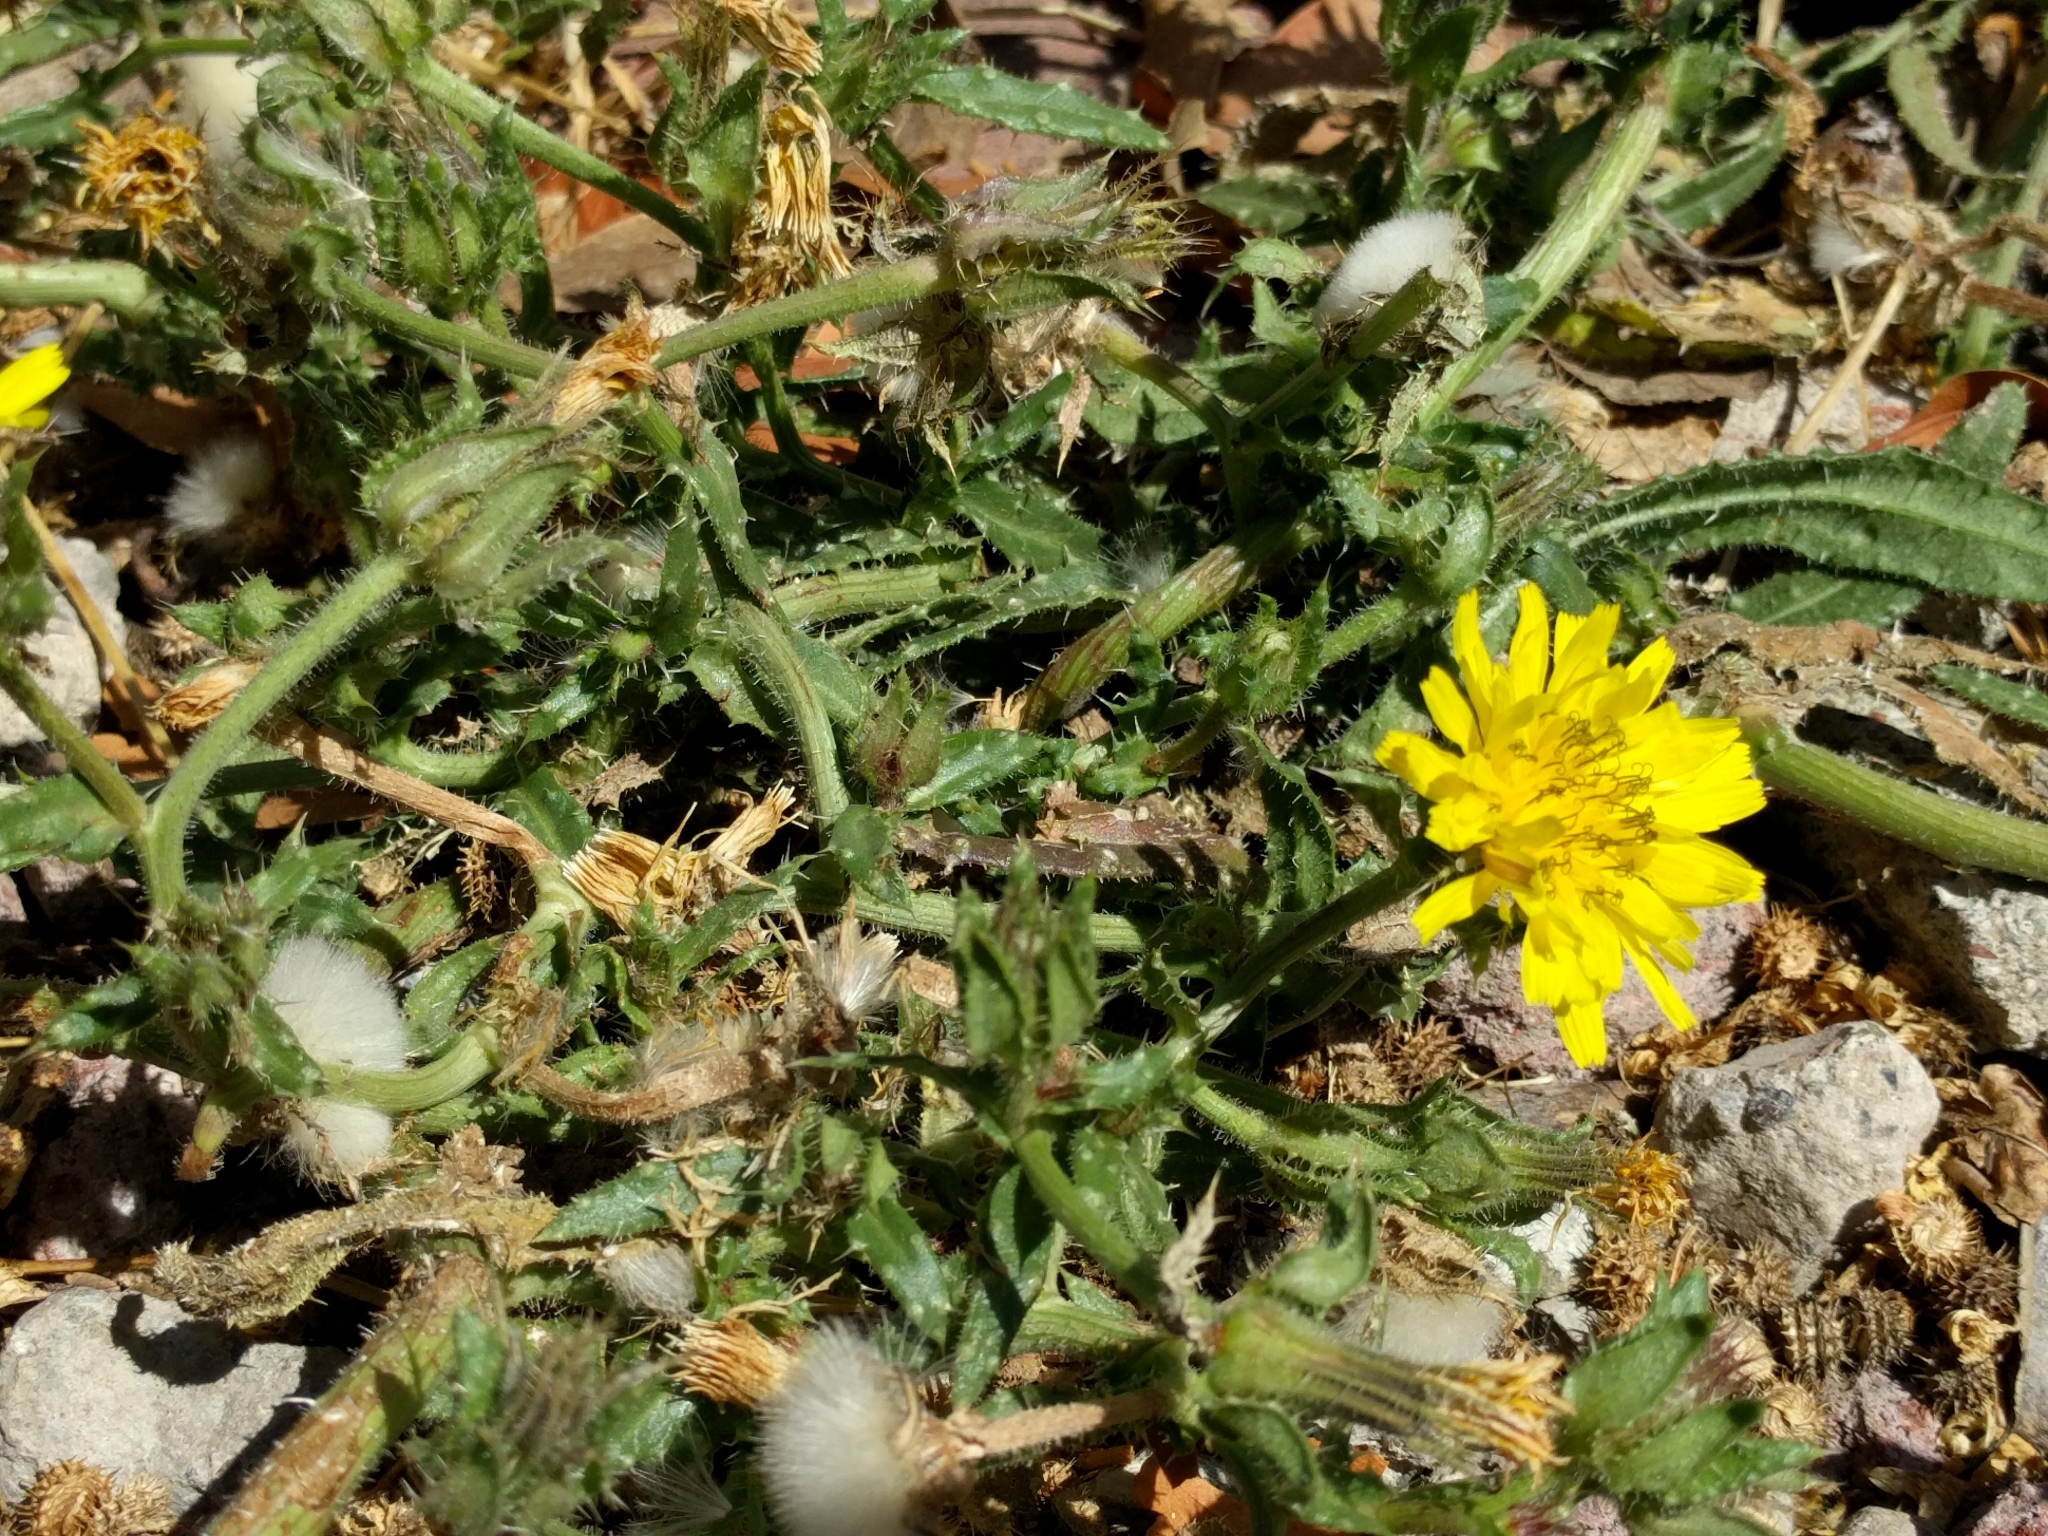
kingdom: Plantae
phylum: Tracheophyta
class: Magnoliopsida
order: Asterales
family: Asteraceae
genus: Helminthotheca
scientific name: Helminthotheca echioides
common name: Ox-tongue
